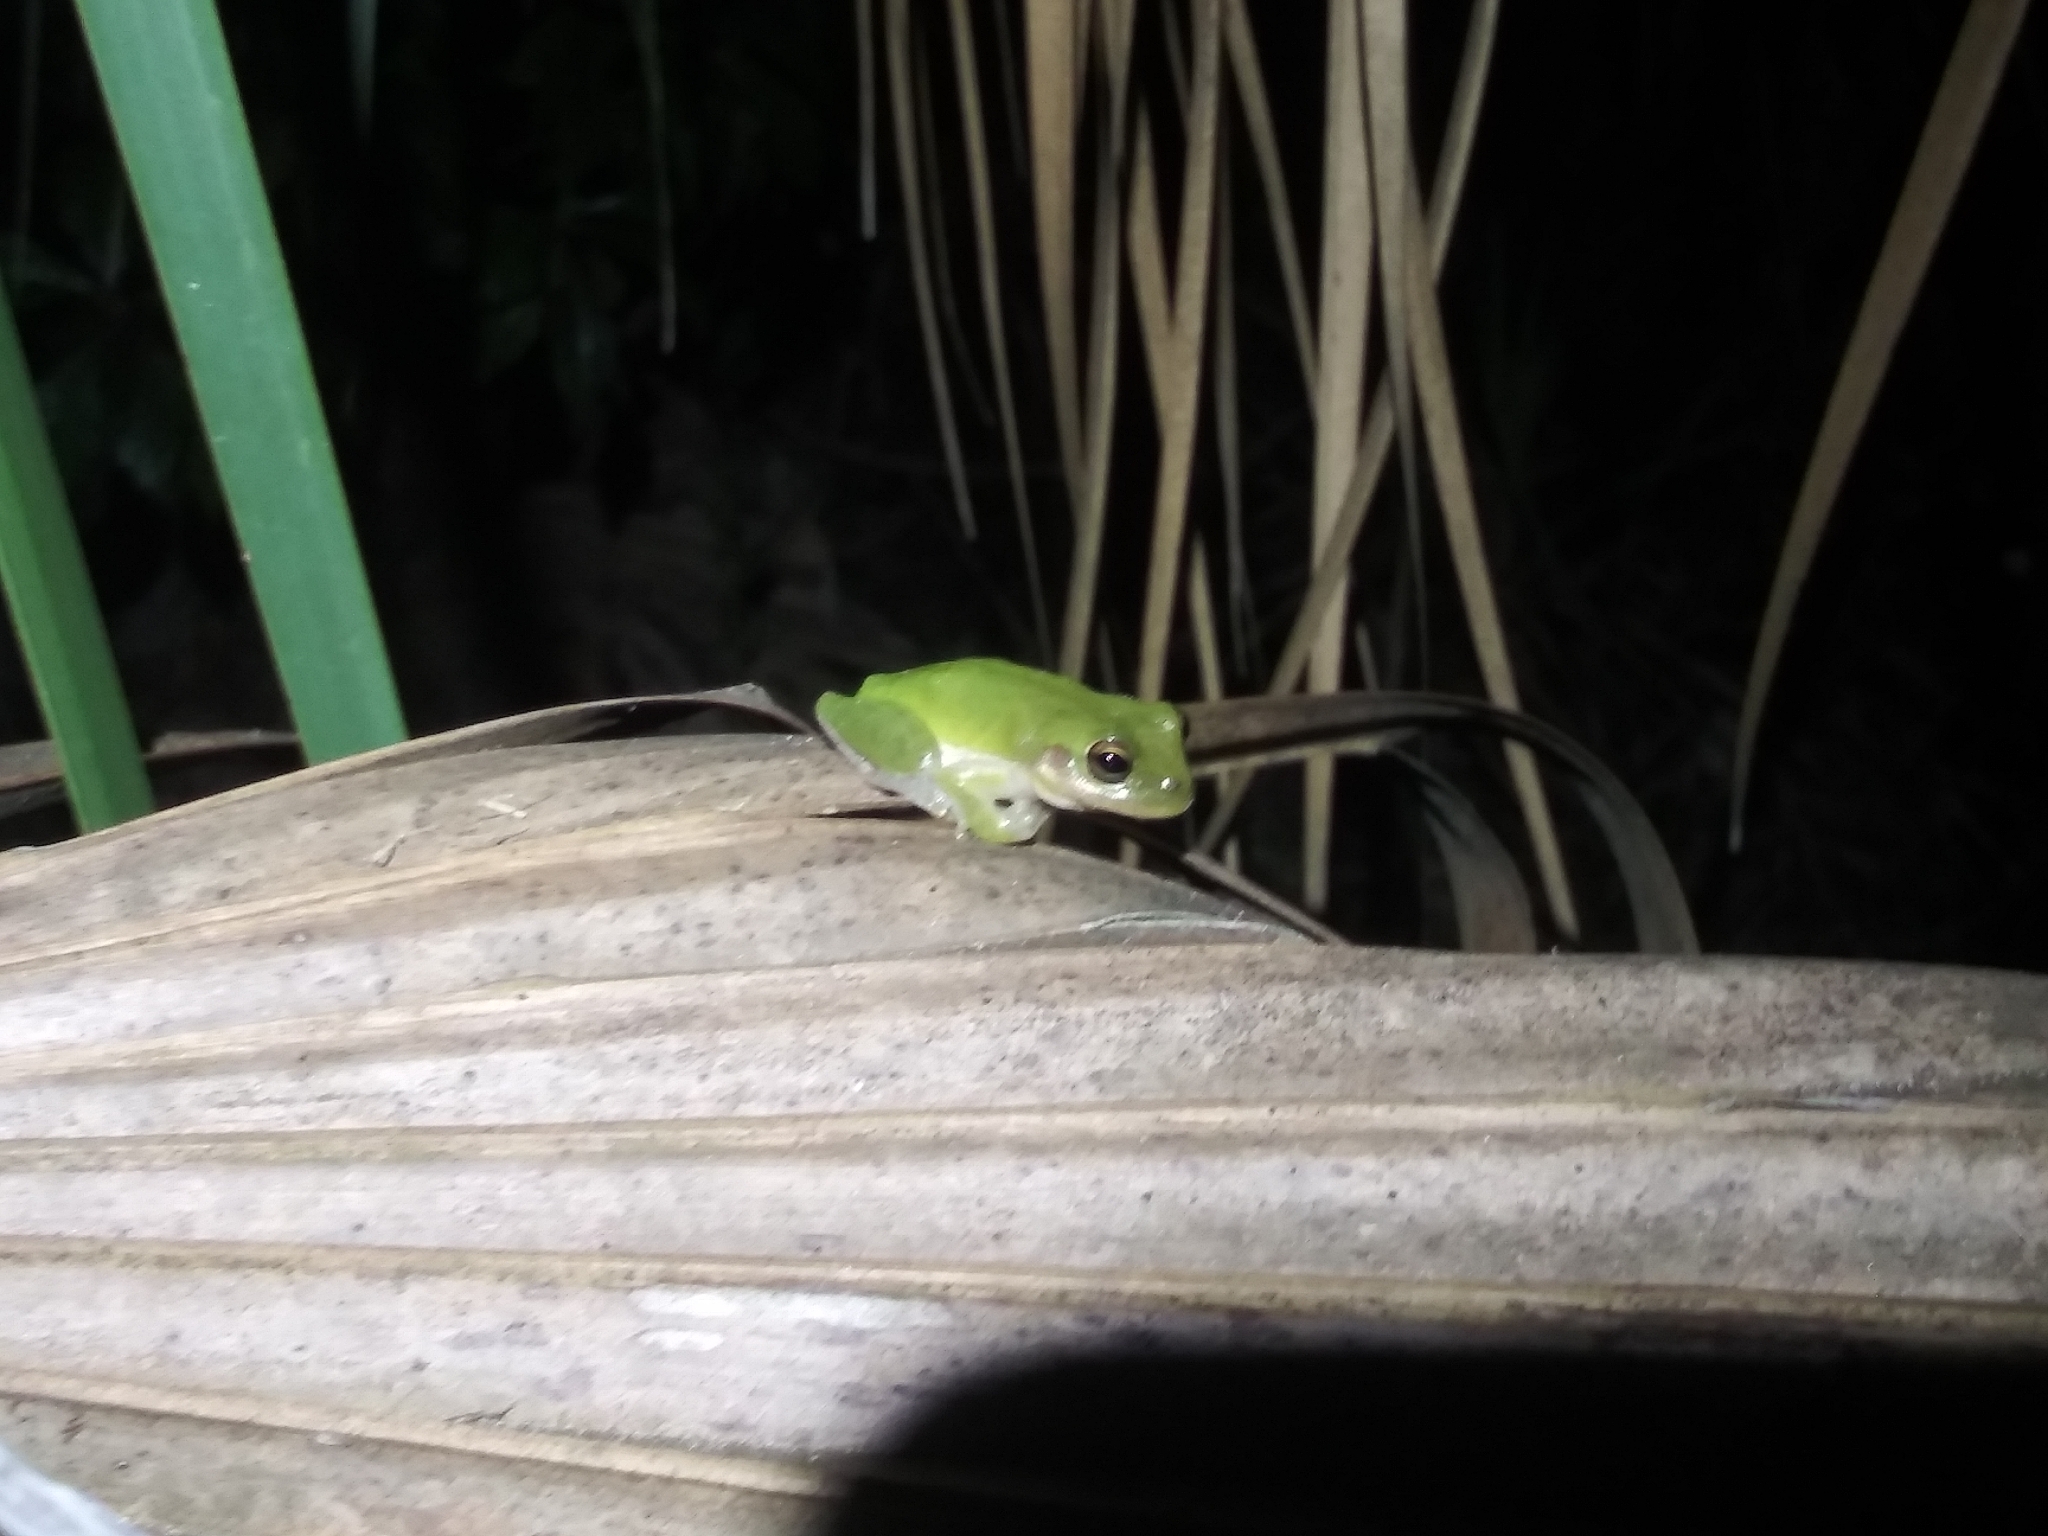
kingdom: Animalia
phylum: Chordata
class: Amphibia
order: Anura
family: Hylidae
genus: Dryophytes
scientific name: Dryophytes squirellus
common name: Squirrel treefrog
